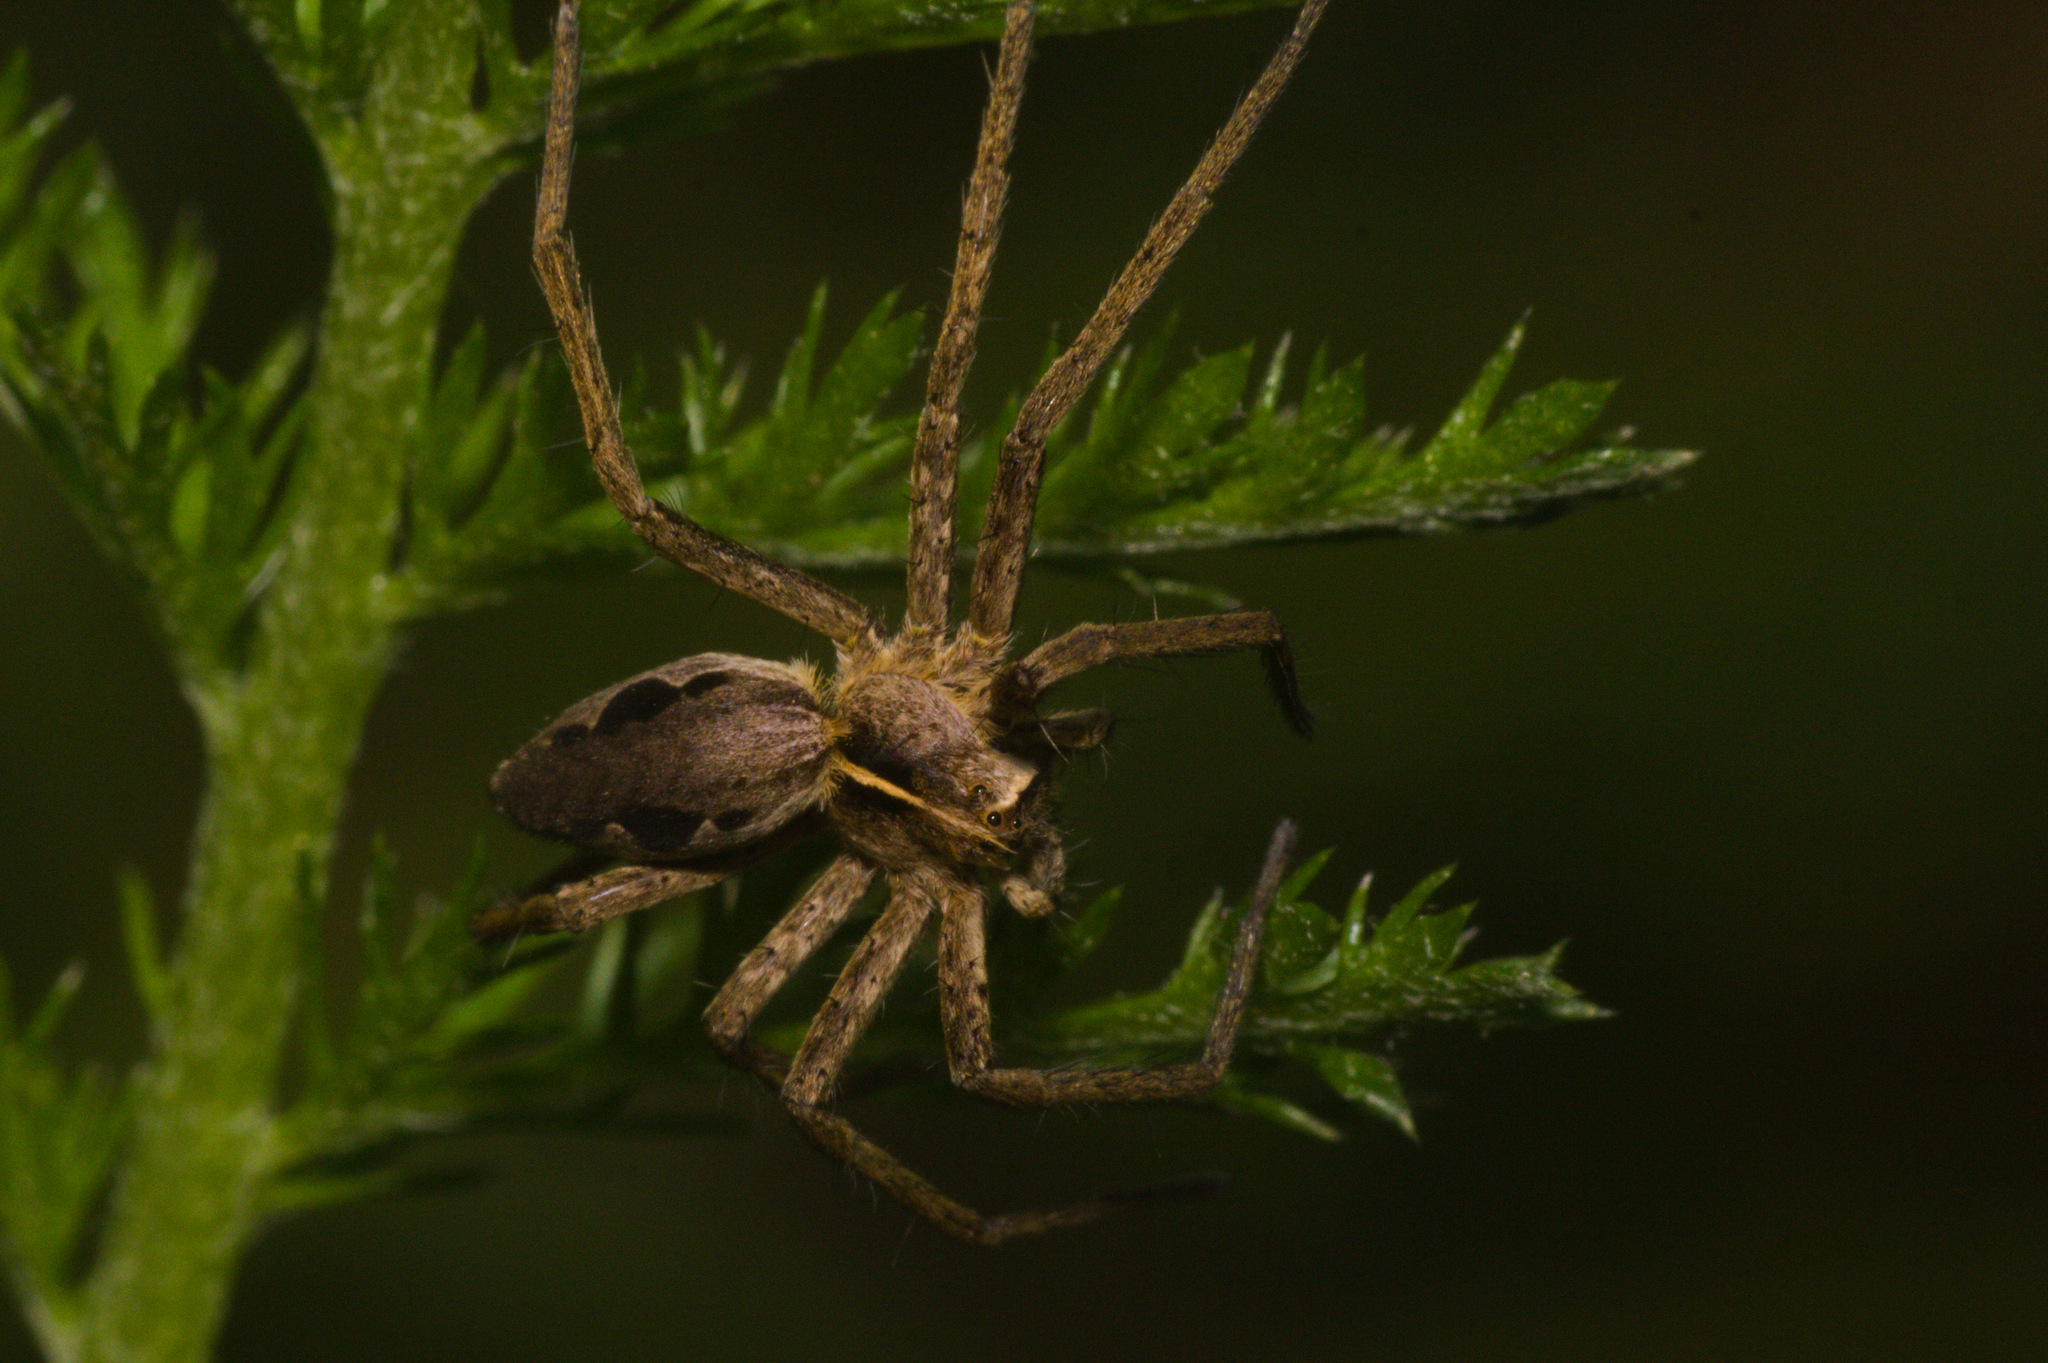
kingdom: Animalia
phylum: Arthropoda
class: Arachnida
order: Araneae
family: Pisauridae
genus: Pisaura
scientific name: Pisaura mirabilis
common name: Tent spider
